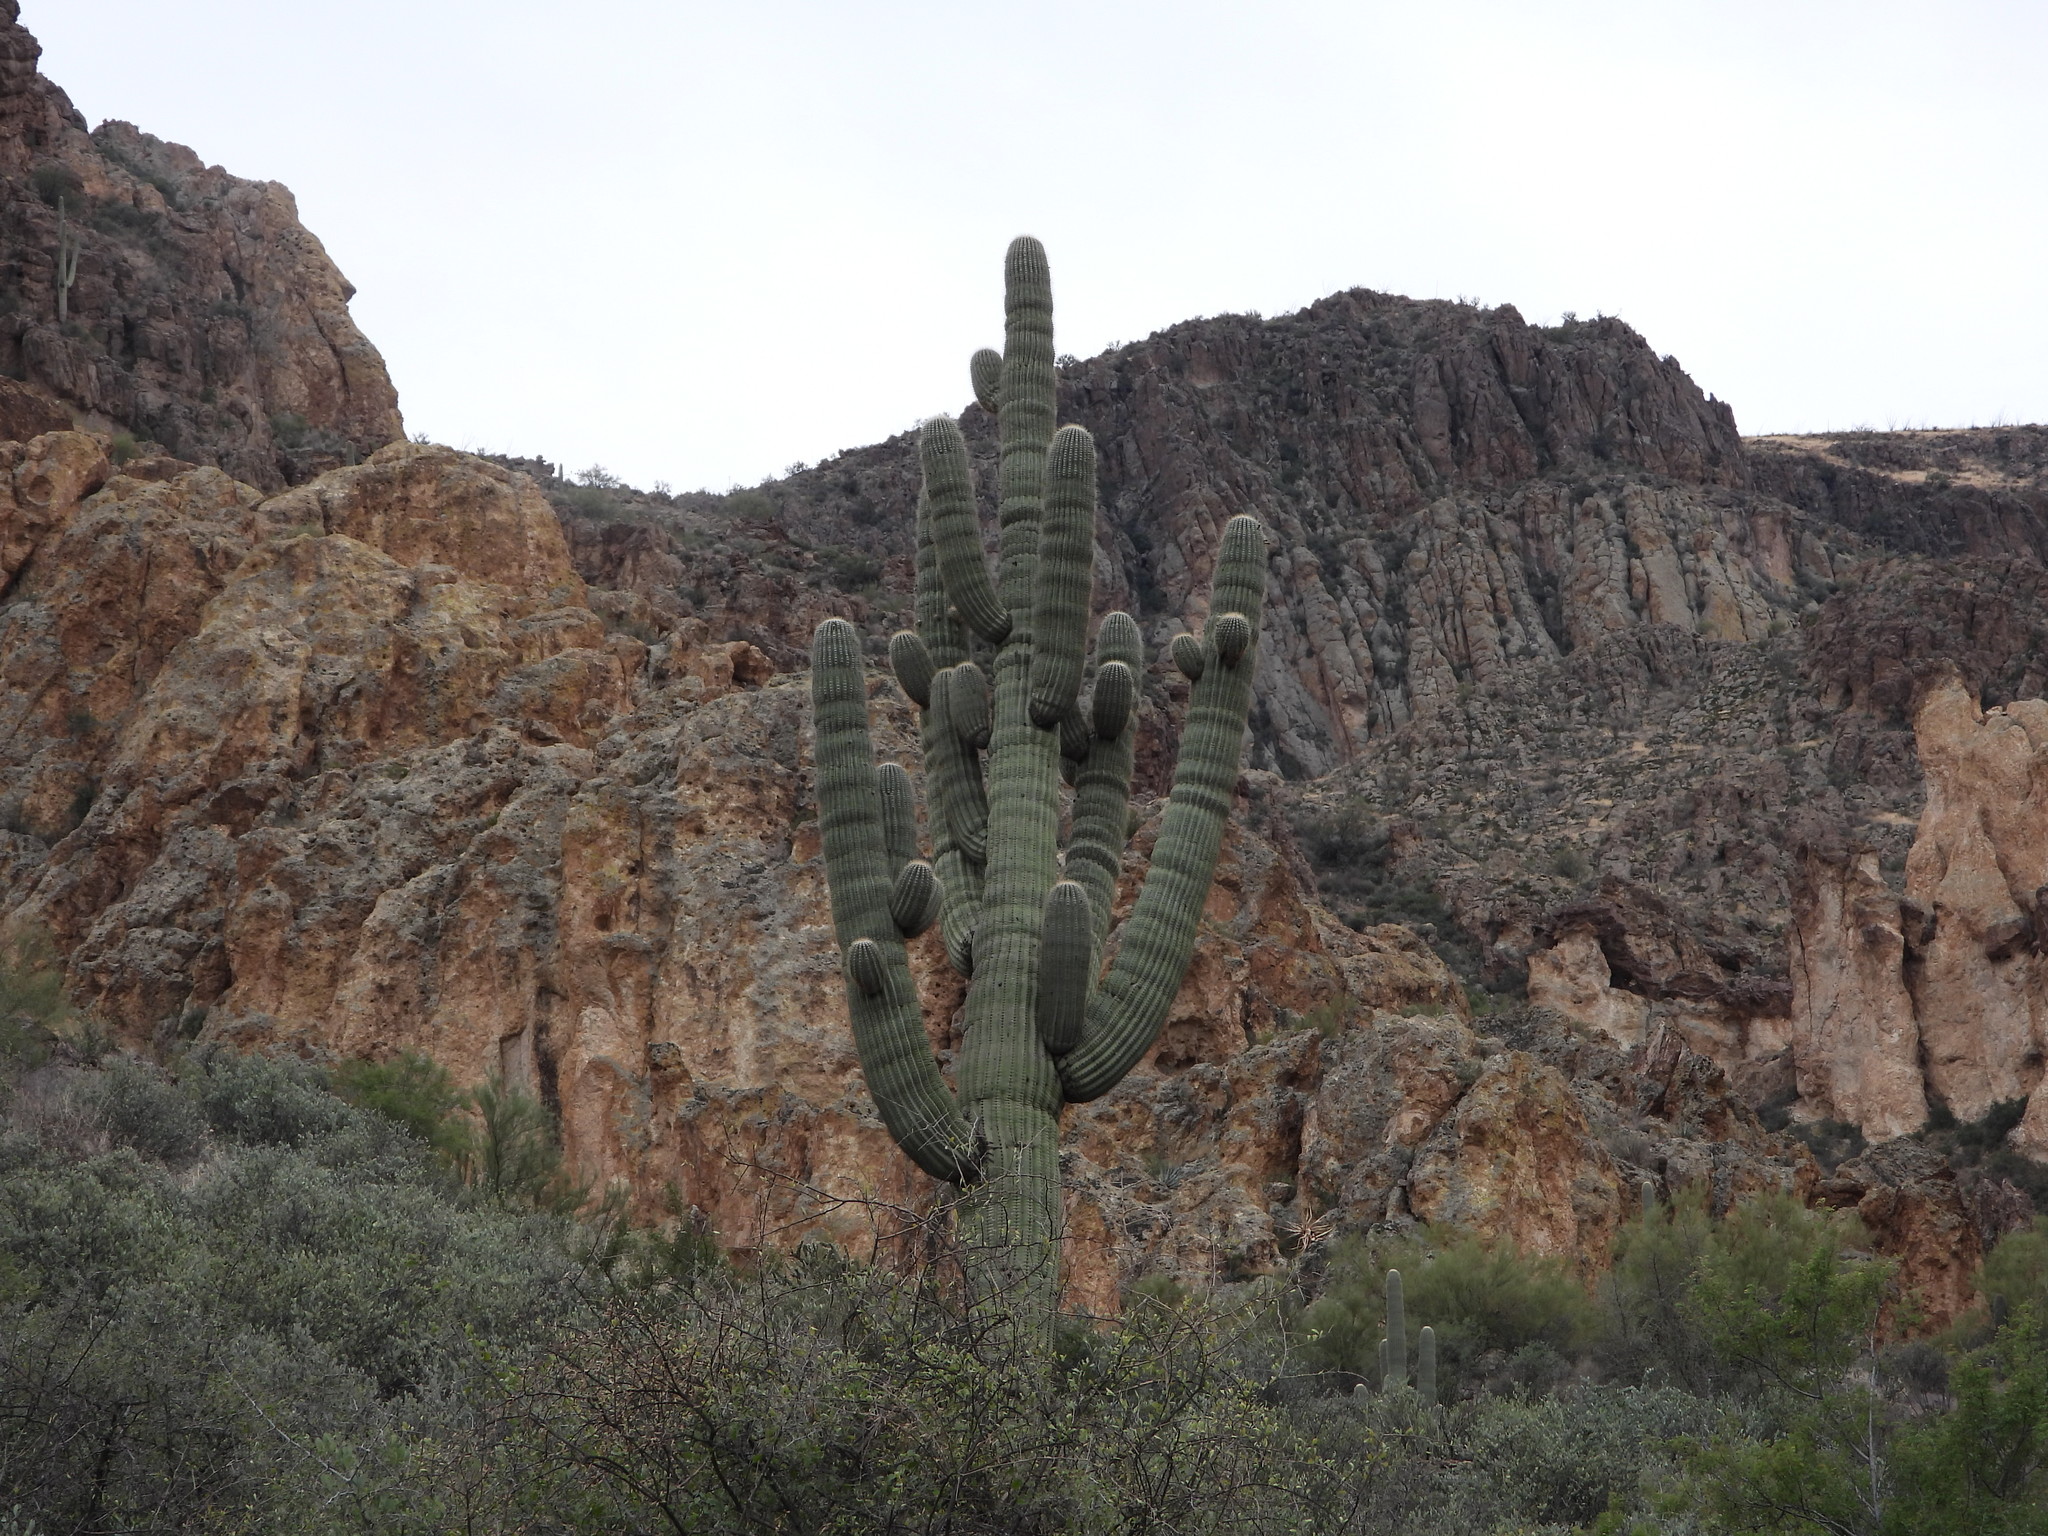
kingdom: Plantae
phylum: Tracheophyta
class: Magnoliopsida
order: Caryophyllales
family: Cactaceae
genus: Carnegiea
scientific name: Carnegiea gigantea
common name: Saguaro
